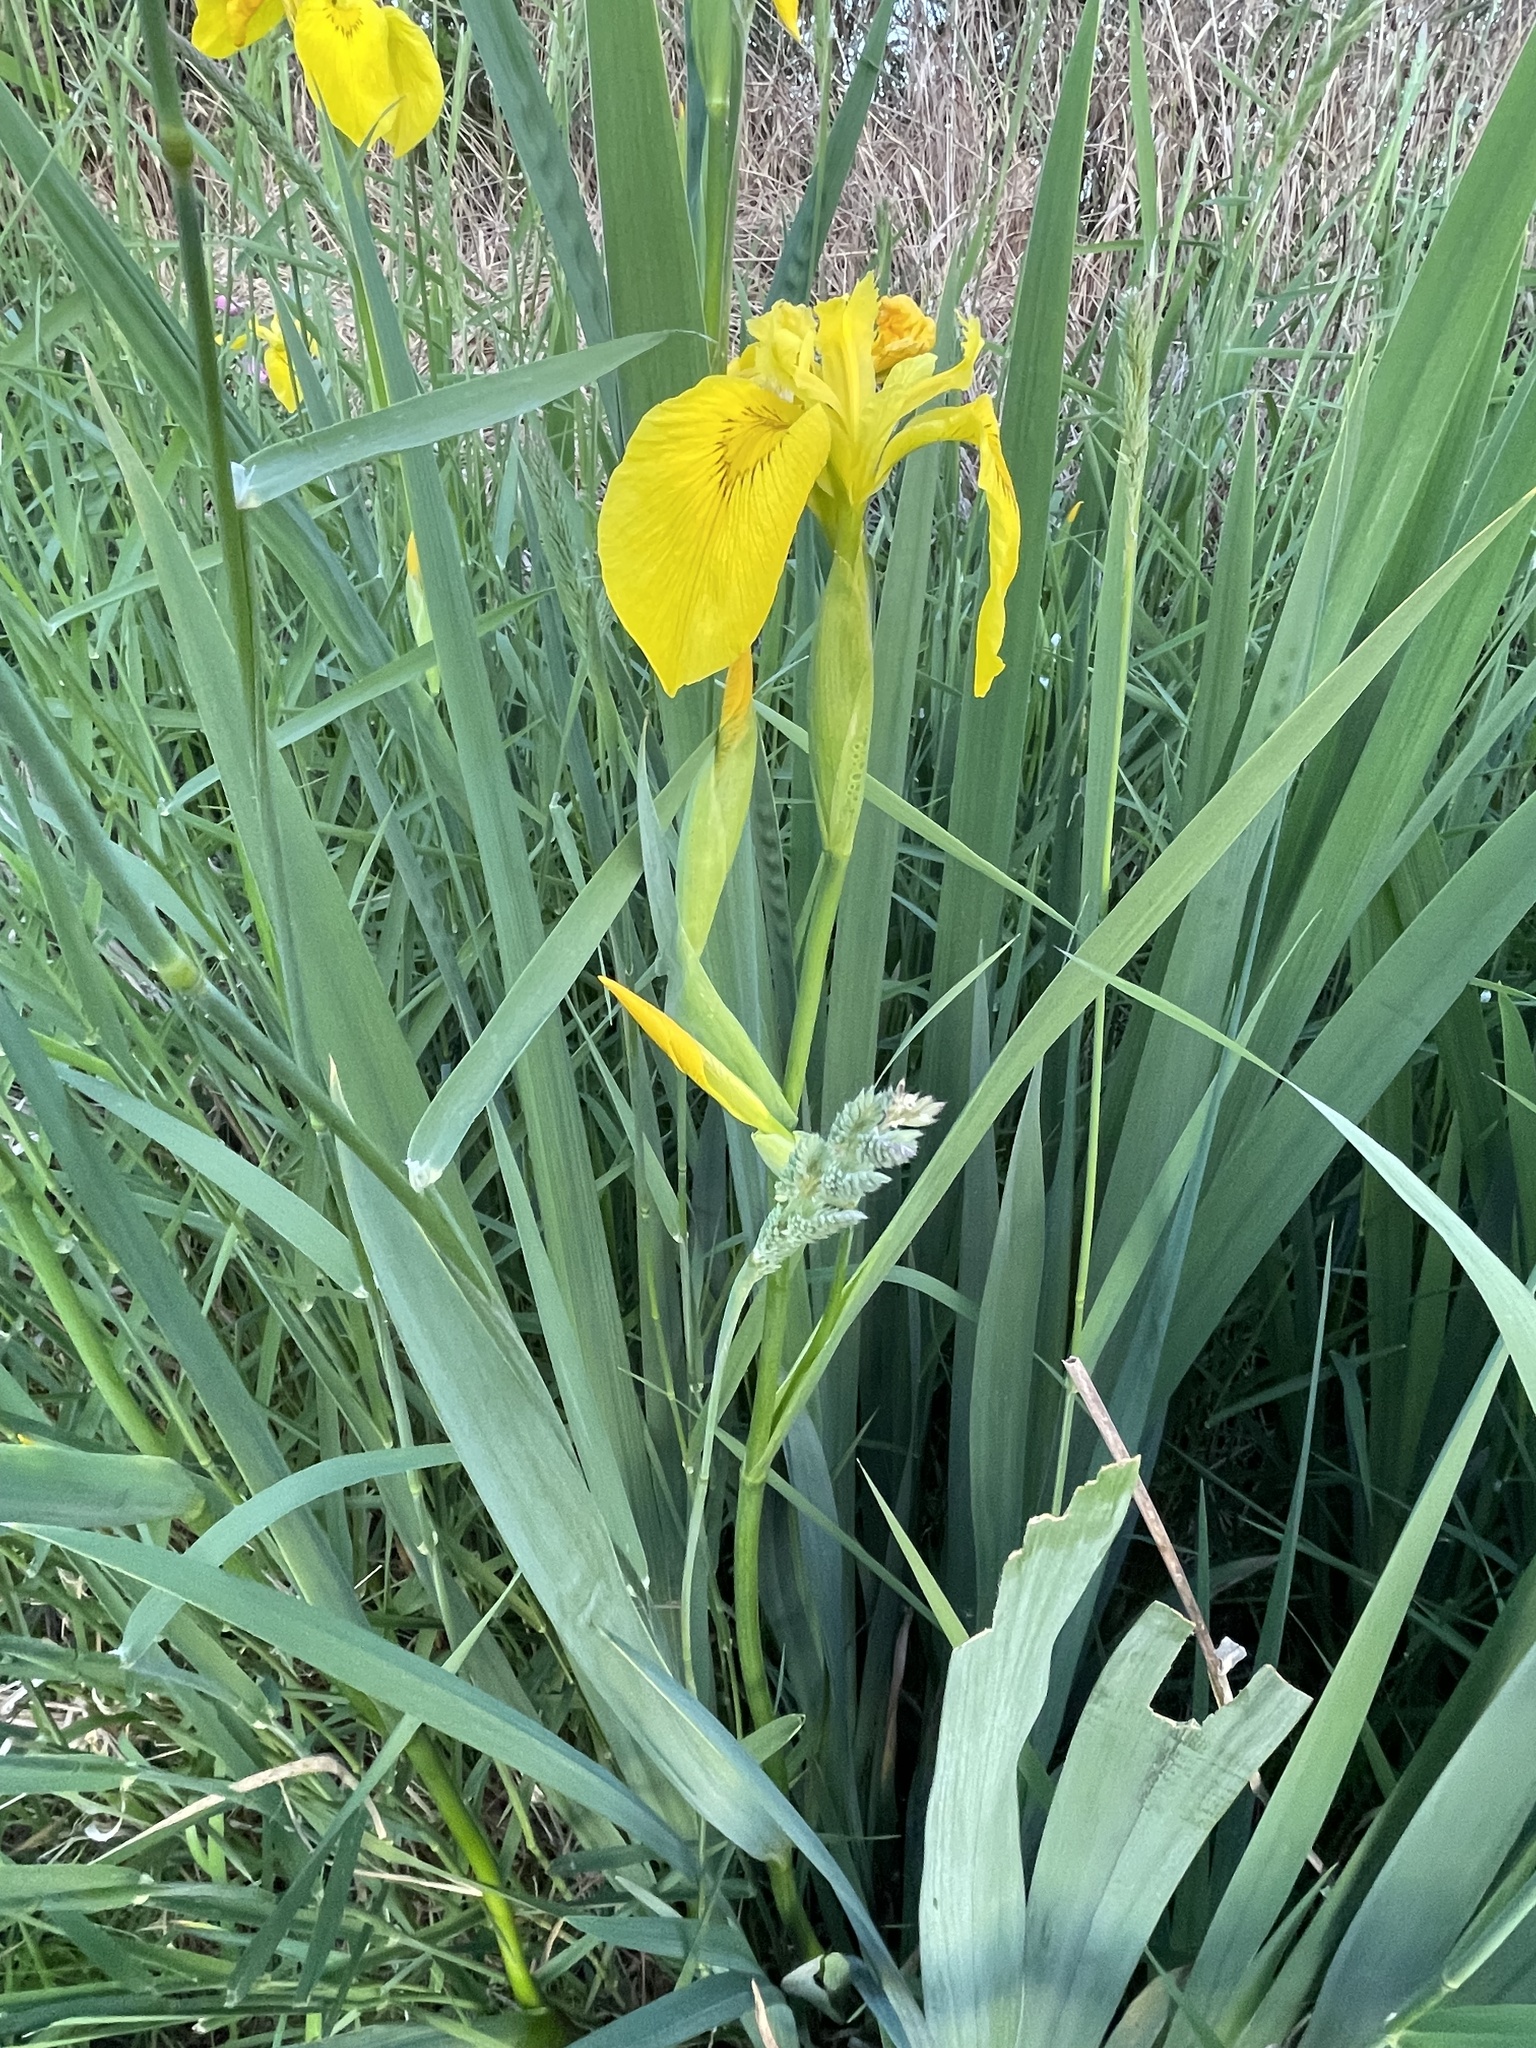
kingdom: Plantae
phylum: Tracheophyta
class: Liliopsida
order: Asparagales
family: Iridaceae
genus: Iris
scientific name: Iris pseudacorus
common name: Yellow flag
